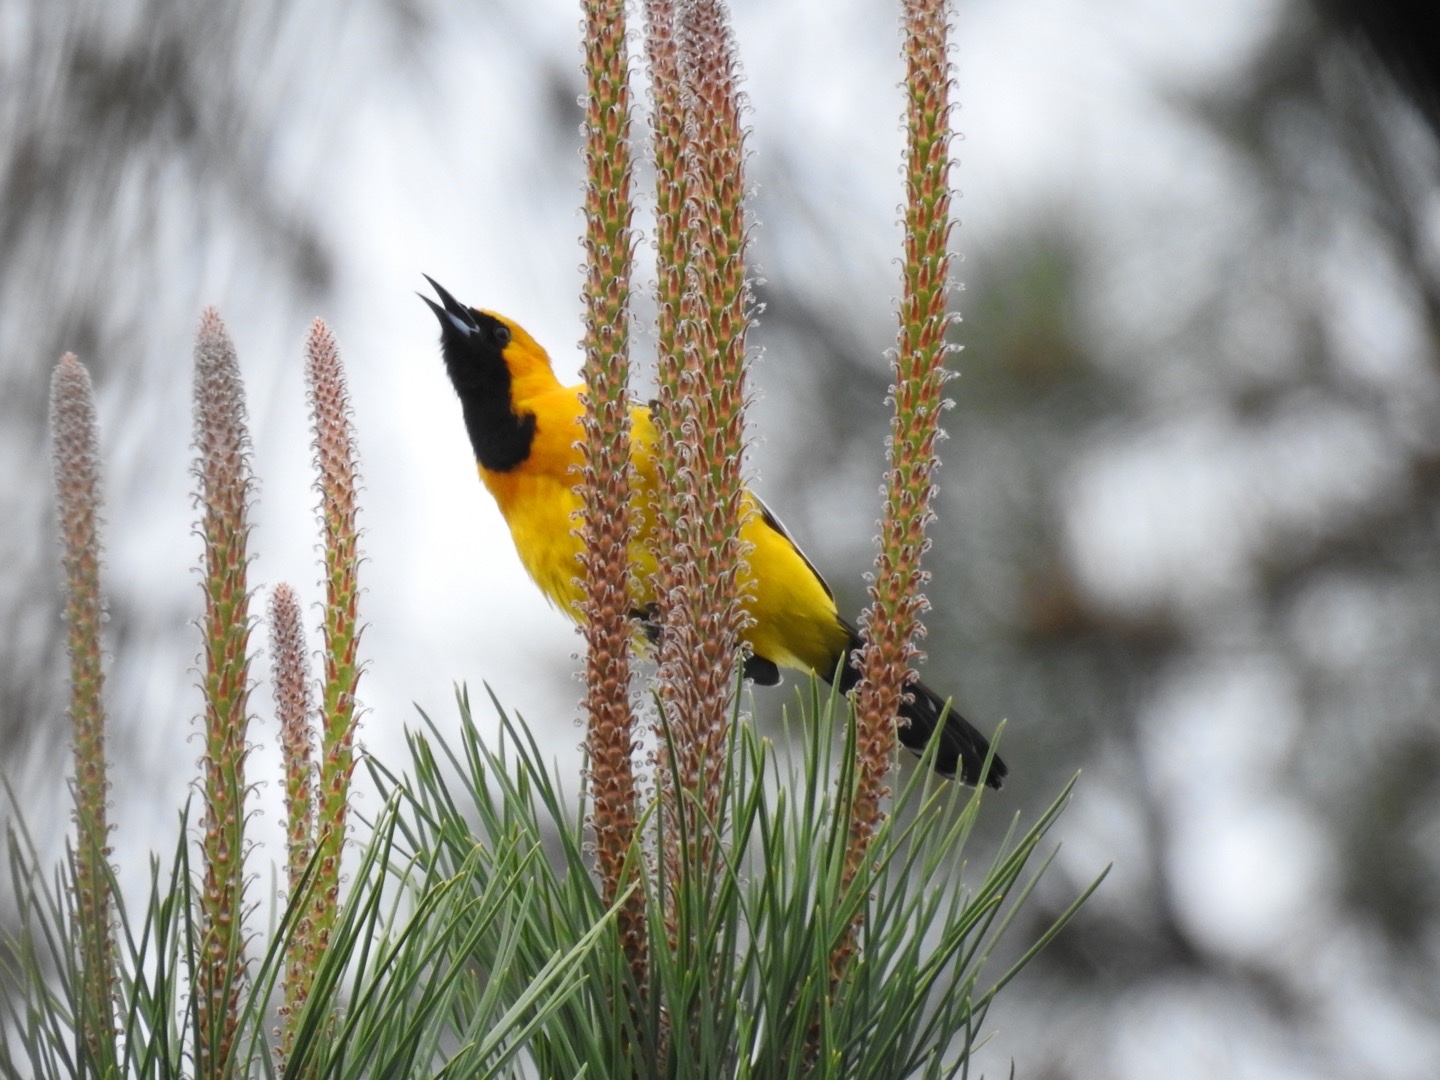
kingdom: Animalia
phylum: Chordata
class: Aves
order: Passeriformes
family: Icteridae
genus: Icterus
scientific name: Icterus cucullatus
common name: Hooded oriole
